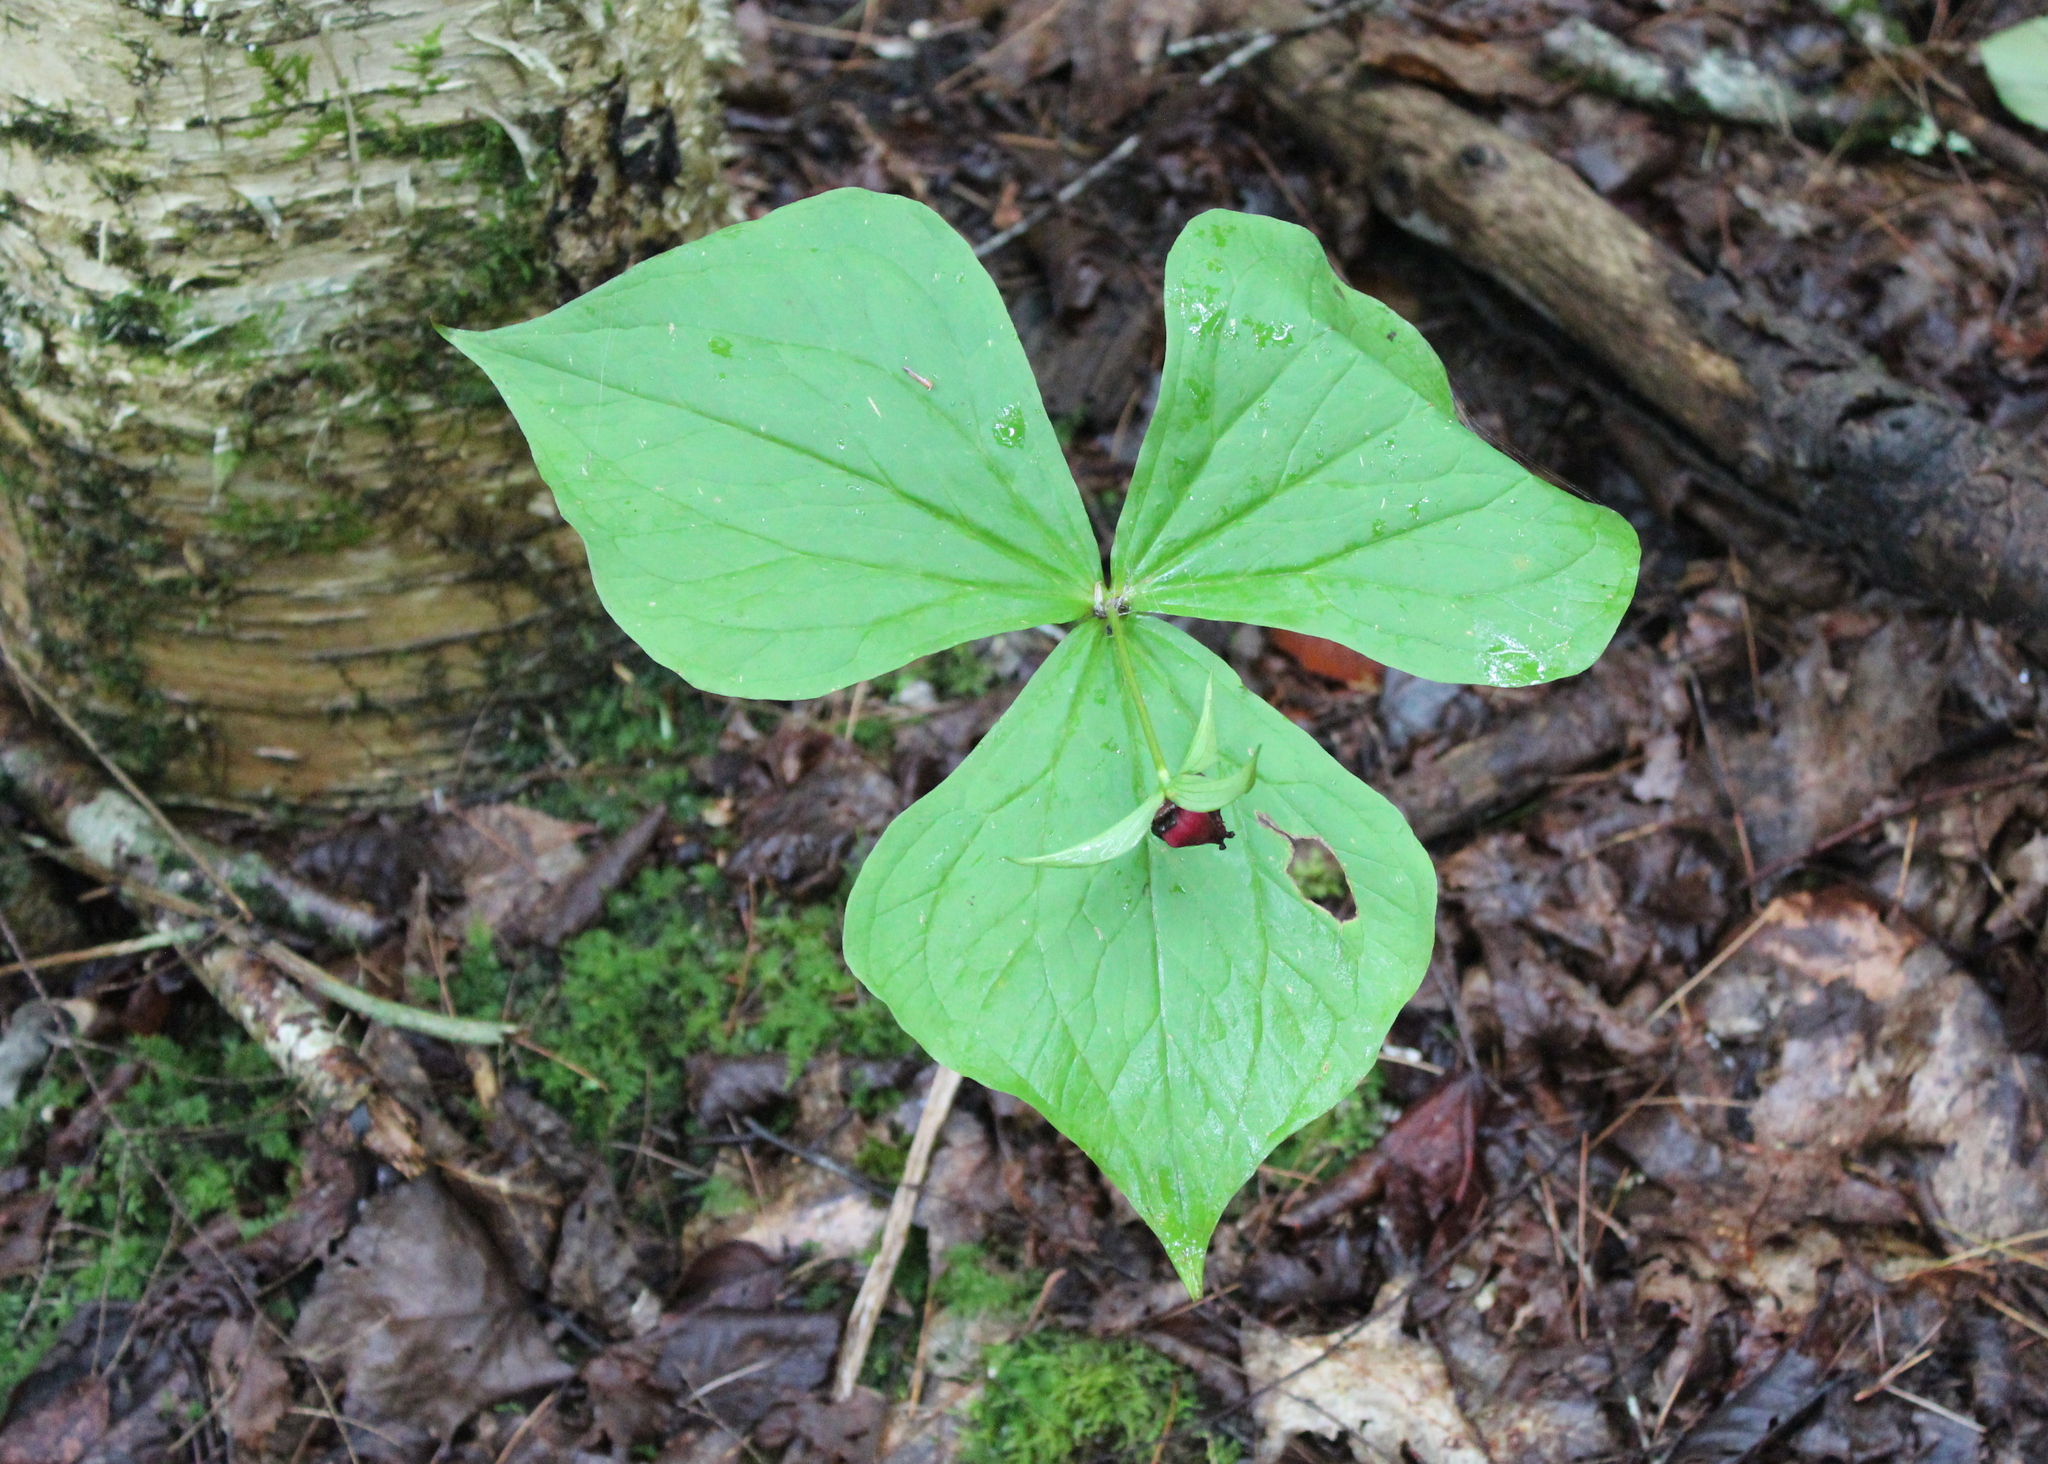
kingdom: Plantae
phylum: Tracheophyta
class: Liliopsida
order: Liliales
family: Melanthiaceae
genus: Trillium
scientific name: Trillium erectum
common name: Purple trillium
